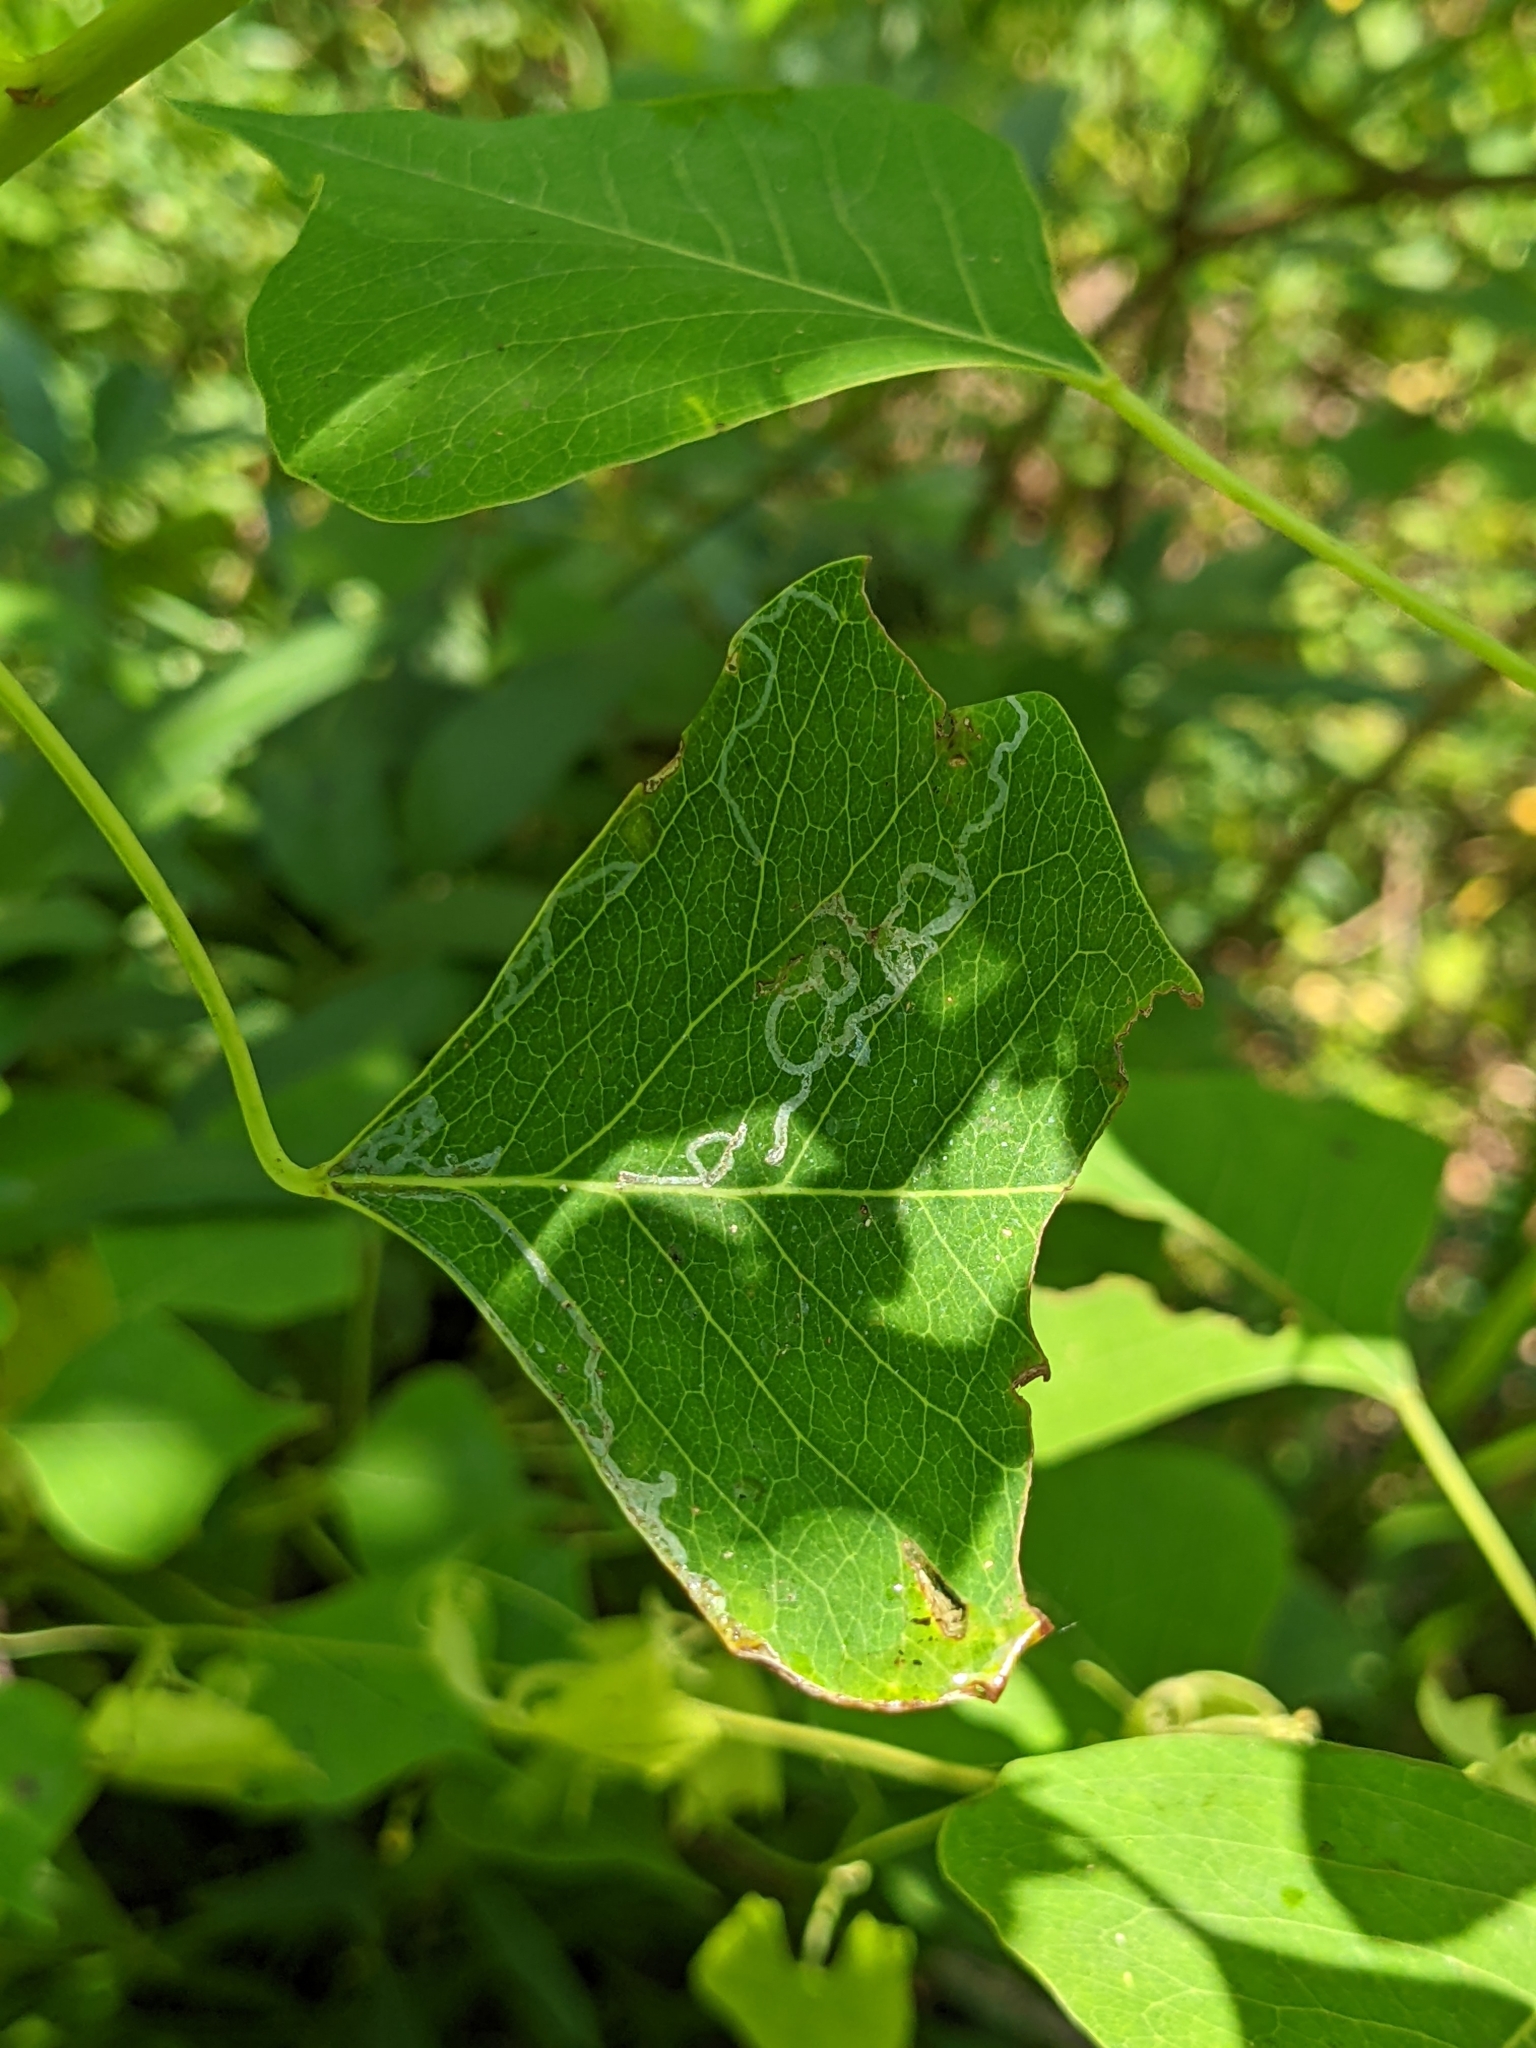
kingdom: Plantae
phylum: Tracheophyta
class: Magnoliopsida
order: Malpighiales
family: Euphorbiaceae
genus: Triadica
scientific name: Triadica sebifera
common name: Chinese tallow
